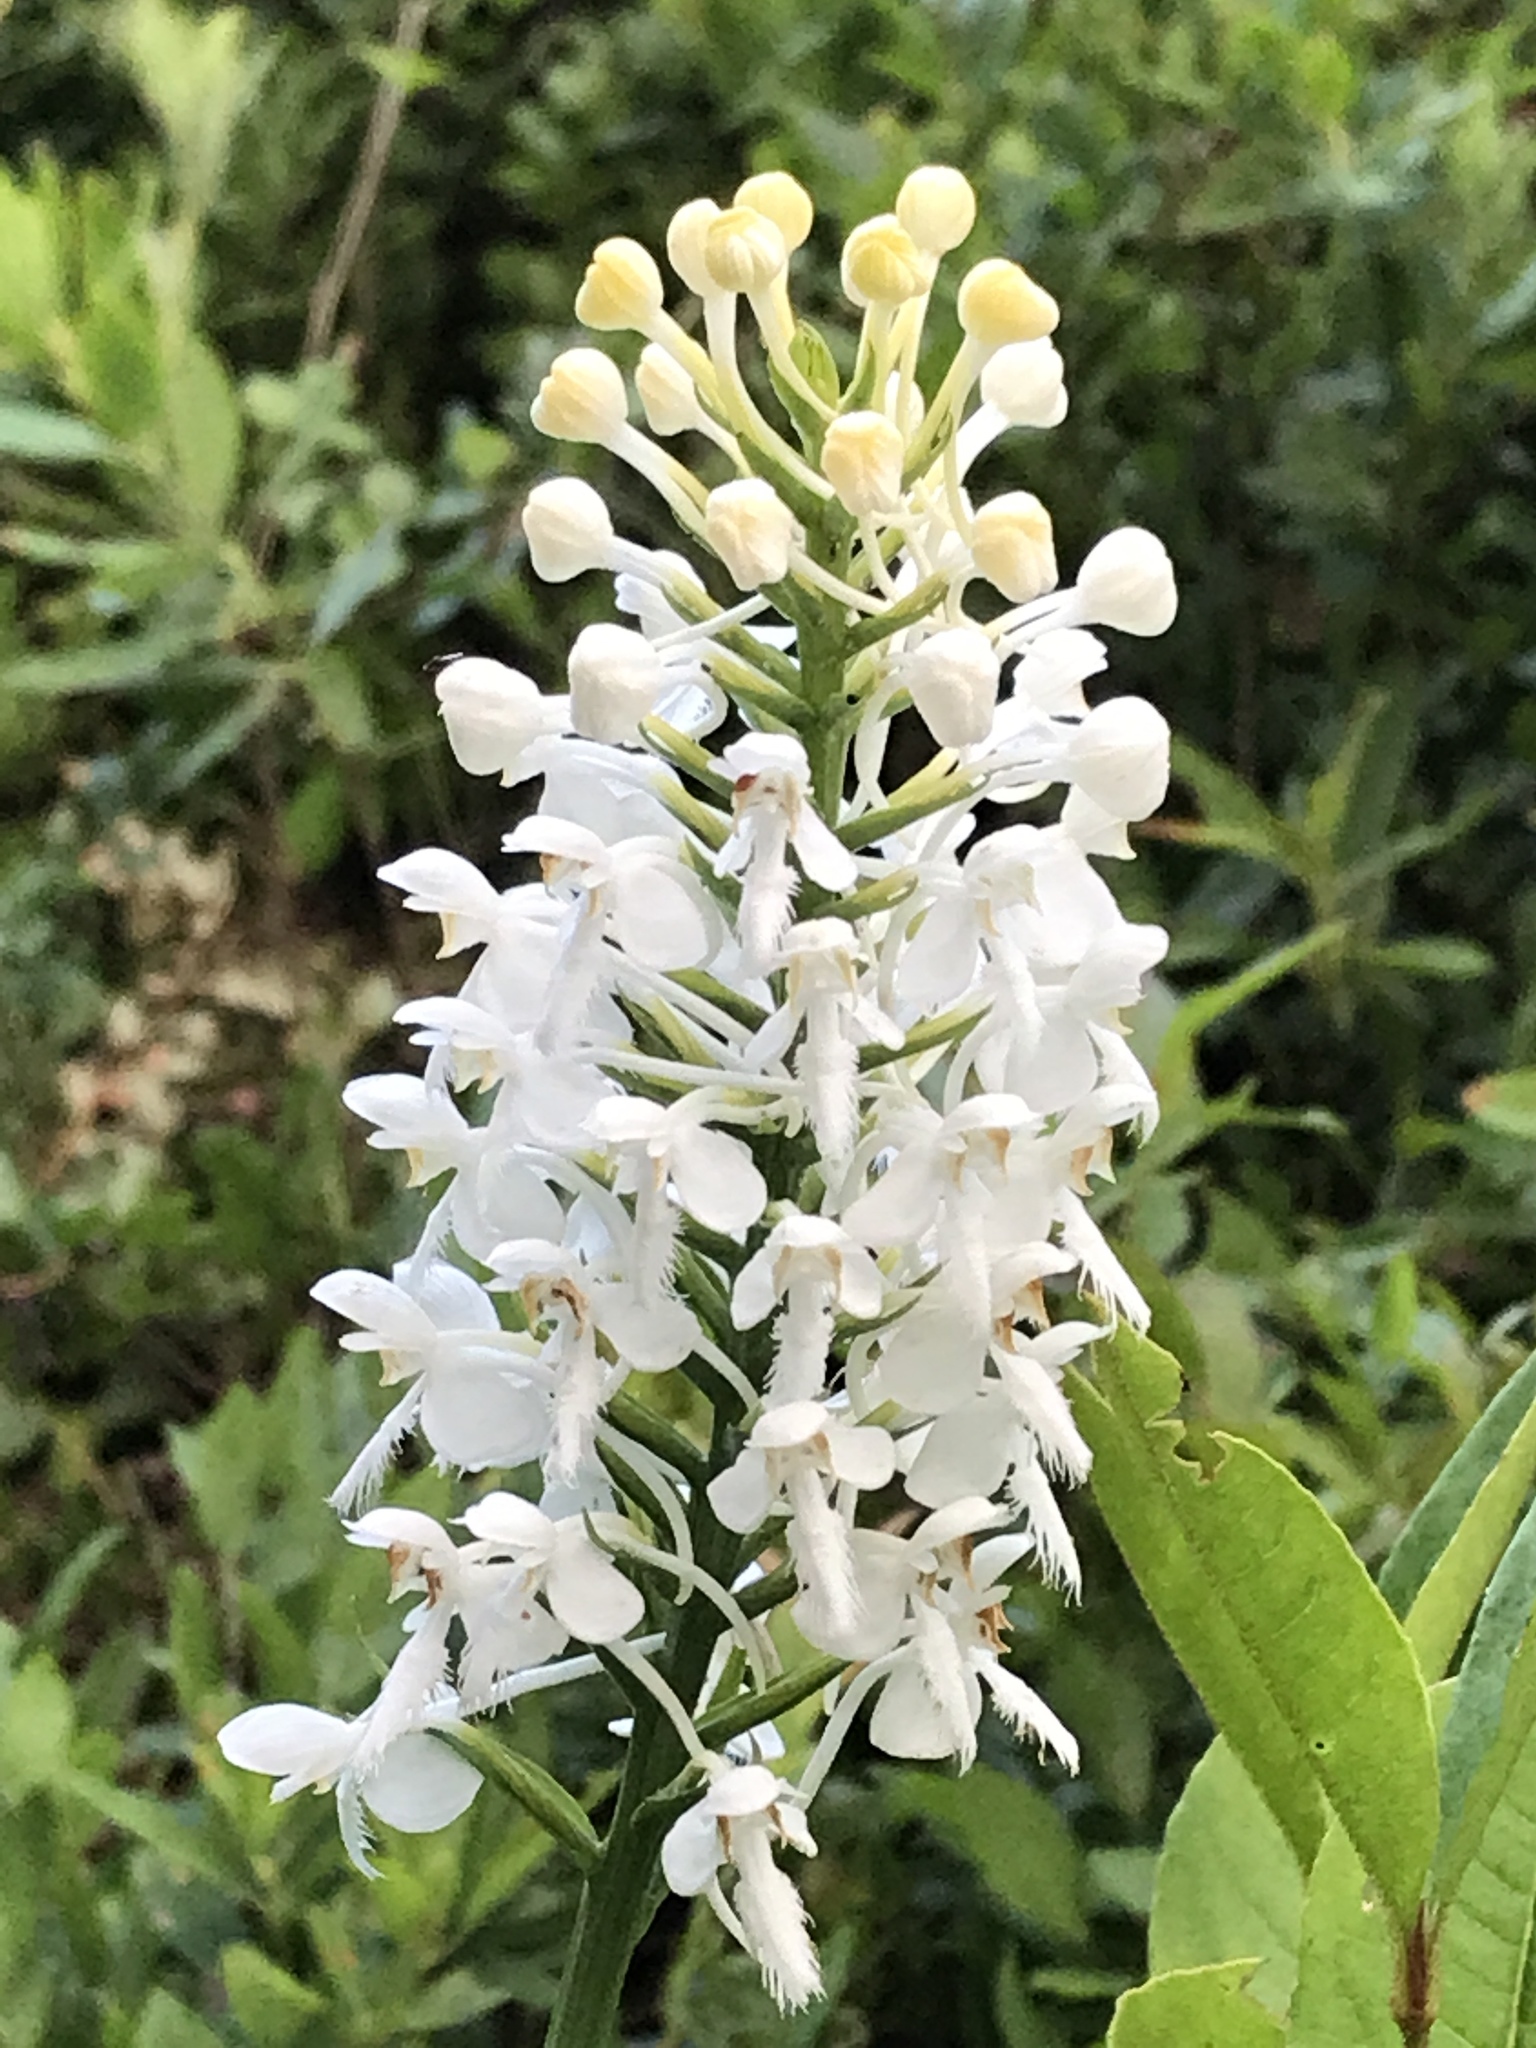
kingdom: Plantae
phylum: Tracheophyta
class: Liliopsida
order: Asparagales
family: Orchidaceae
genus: Platanthera
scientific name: Platanthera blephariglottis
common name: White fringed orchid
